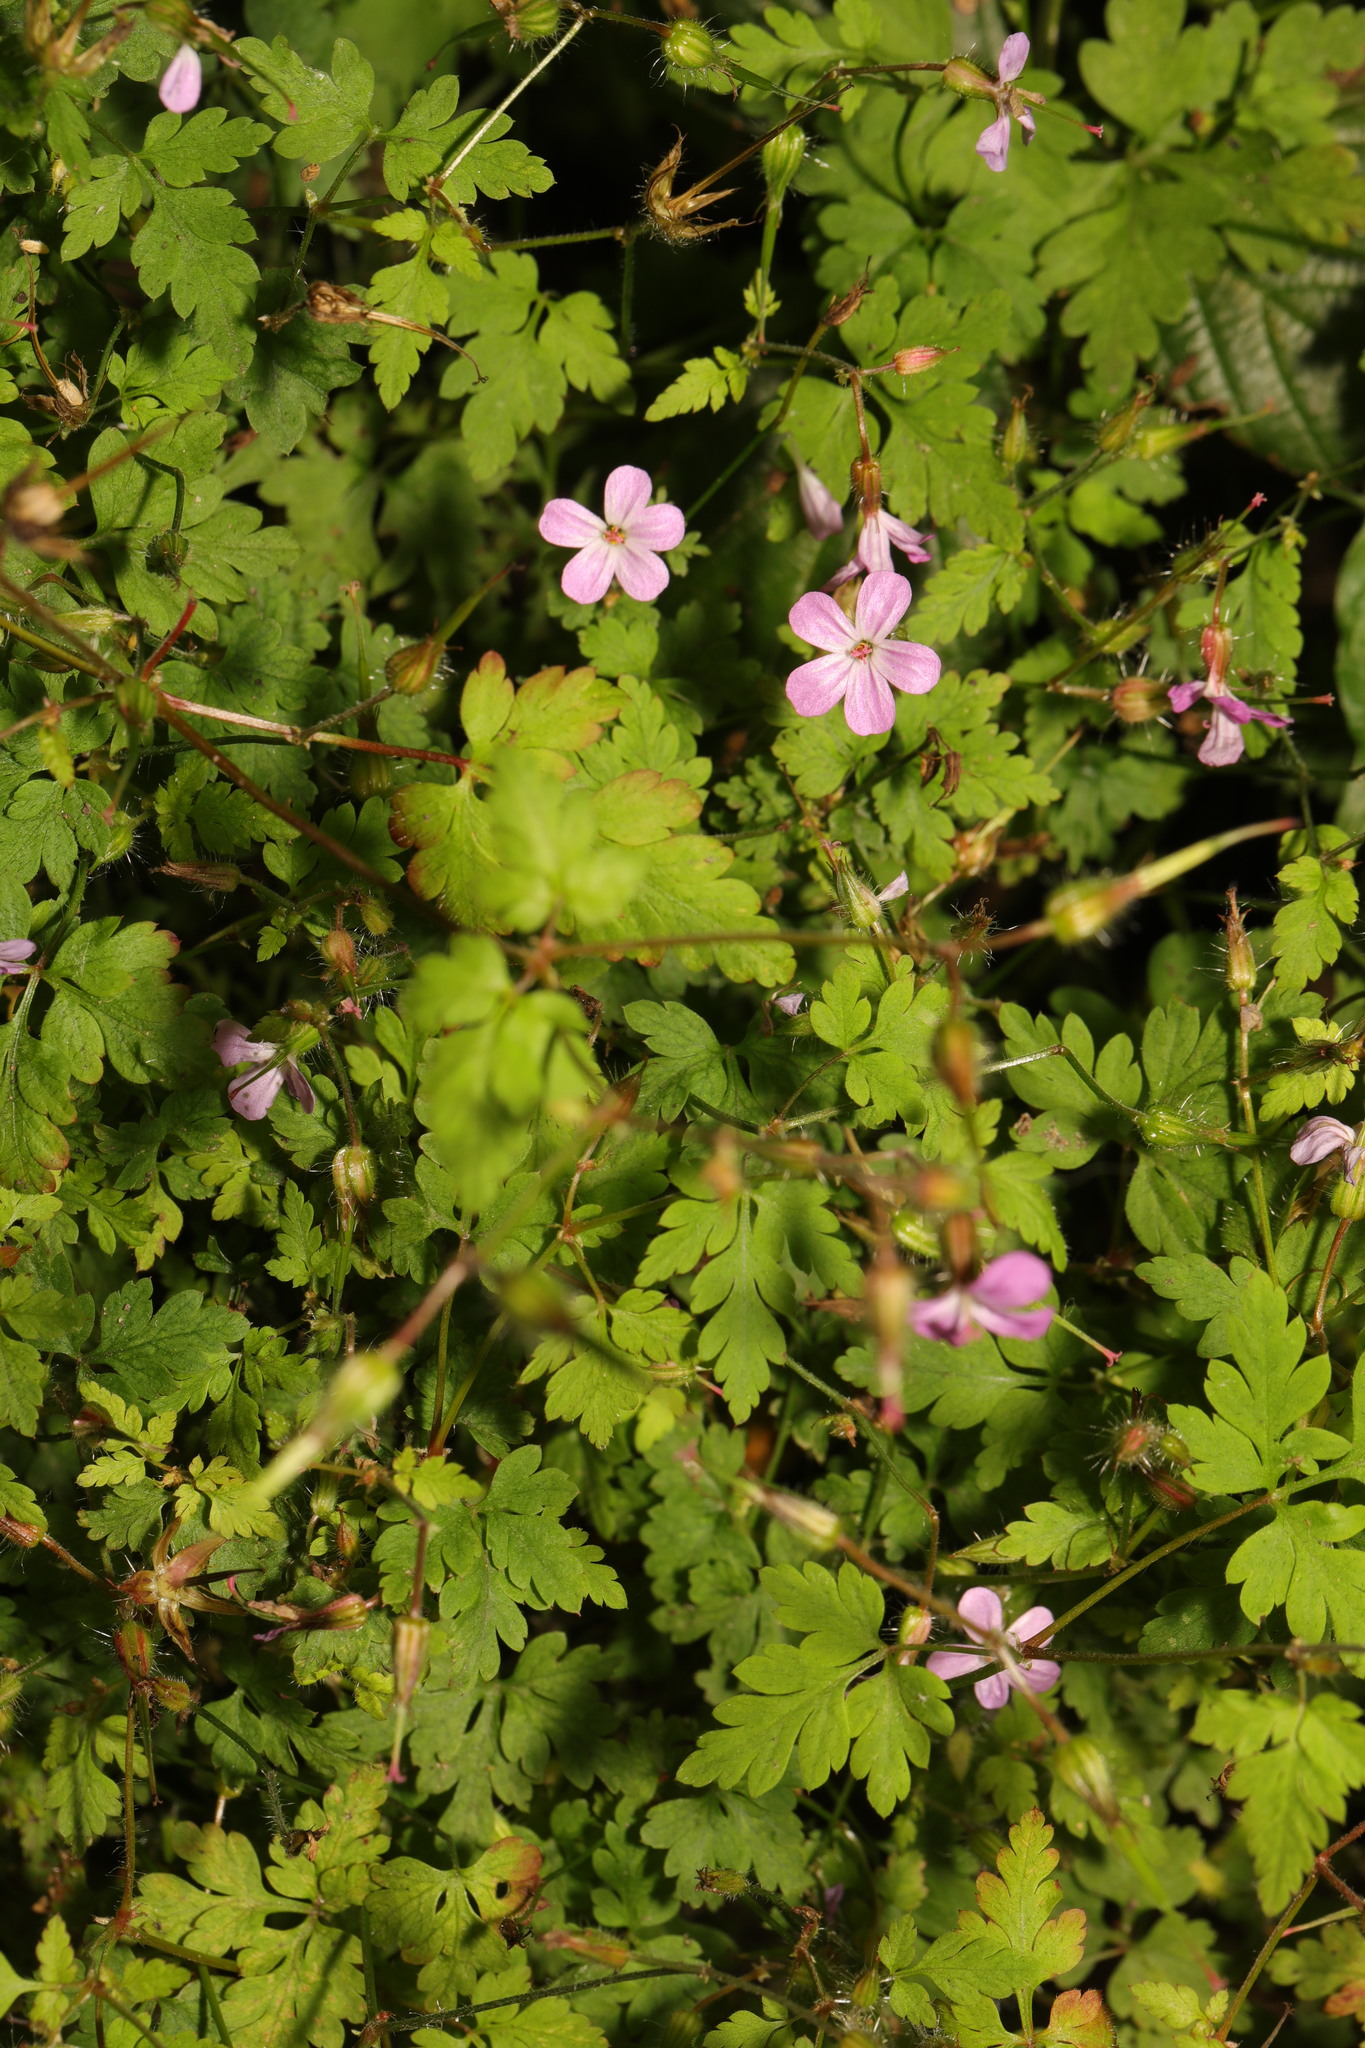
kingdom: Plantae
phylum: Tracheophyta
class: Magnoliopsida
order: Geraniales
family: Geraniaceae
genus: Geranium
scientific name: Geranium robertianum
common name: Herb-robert
